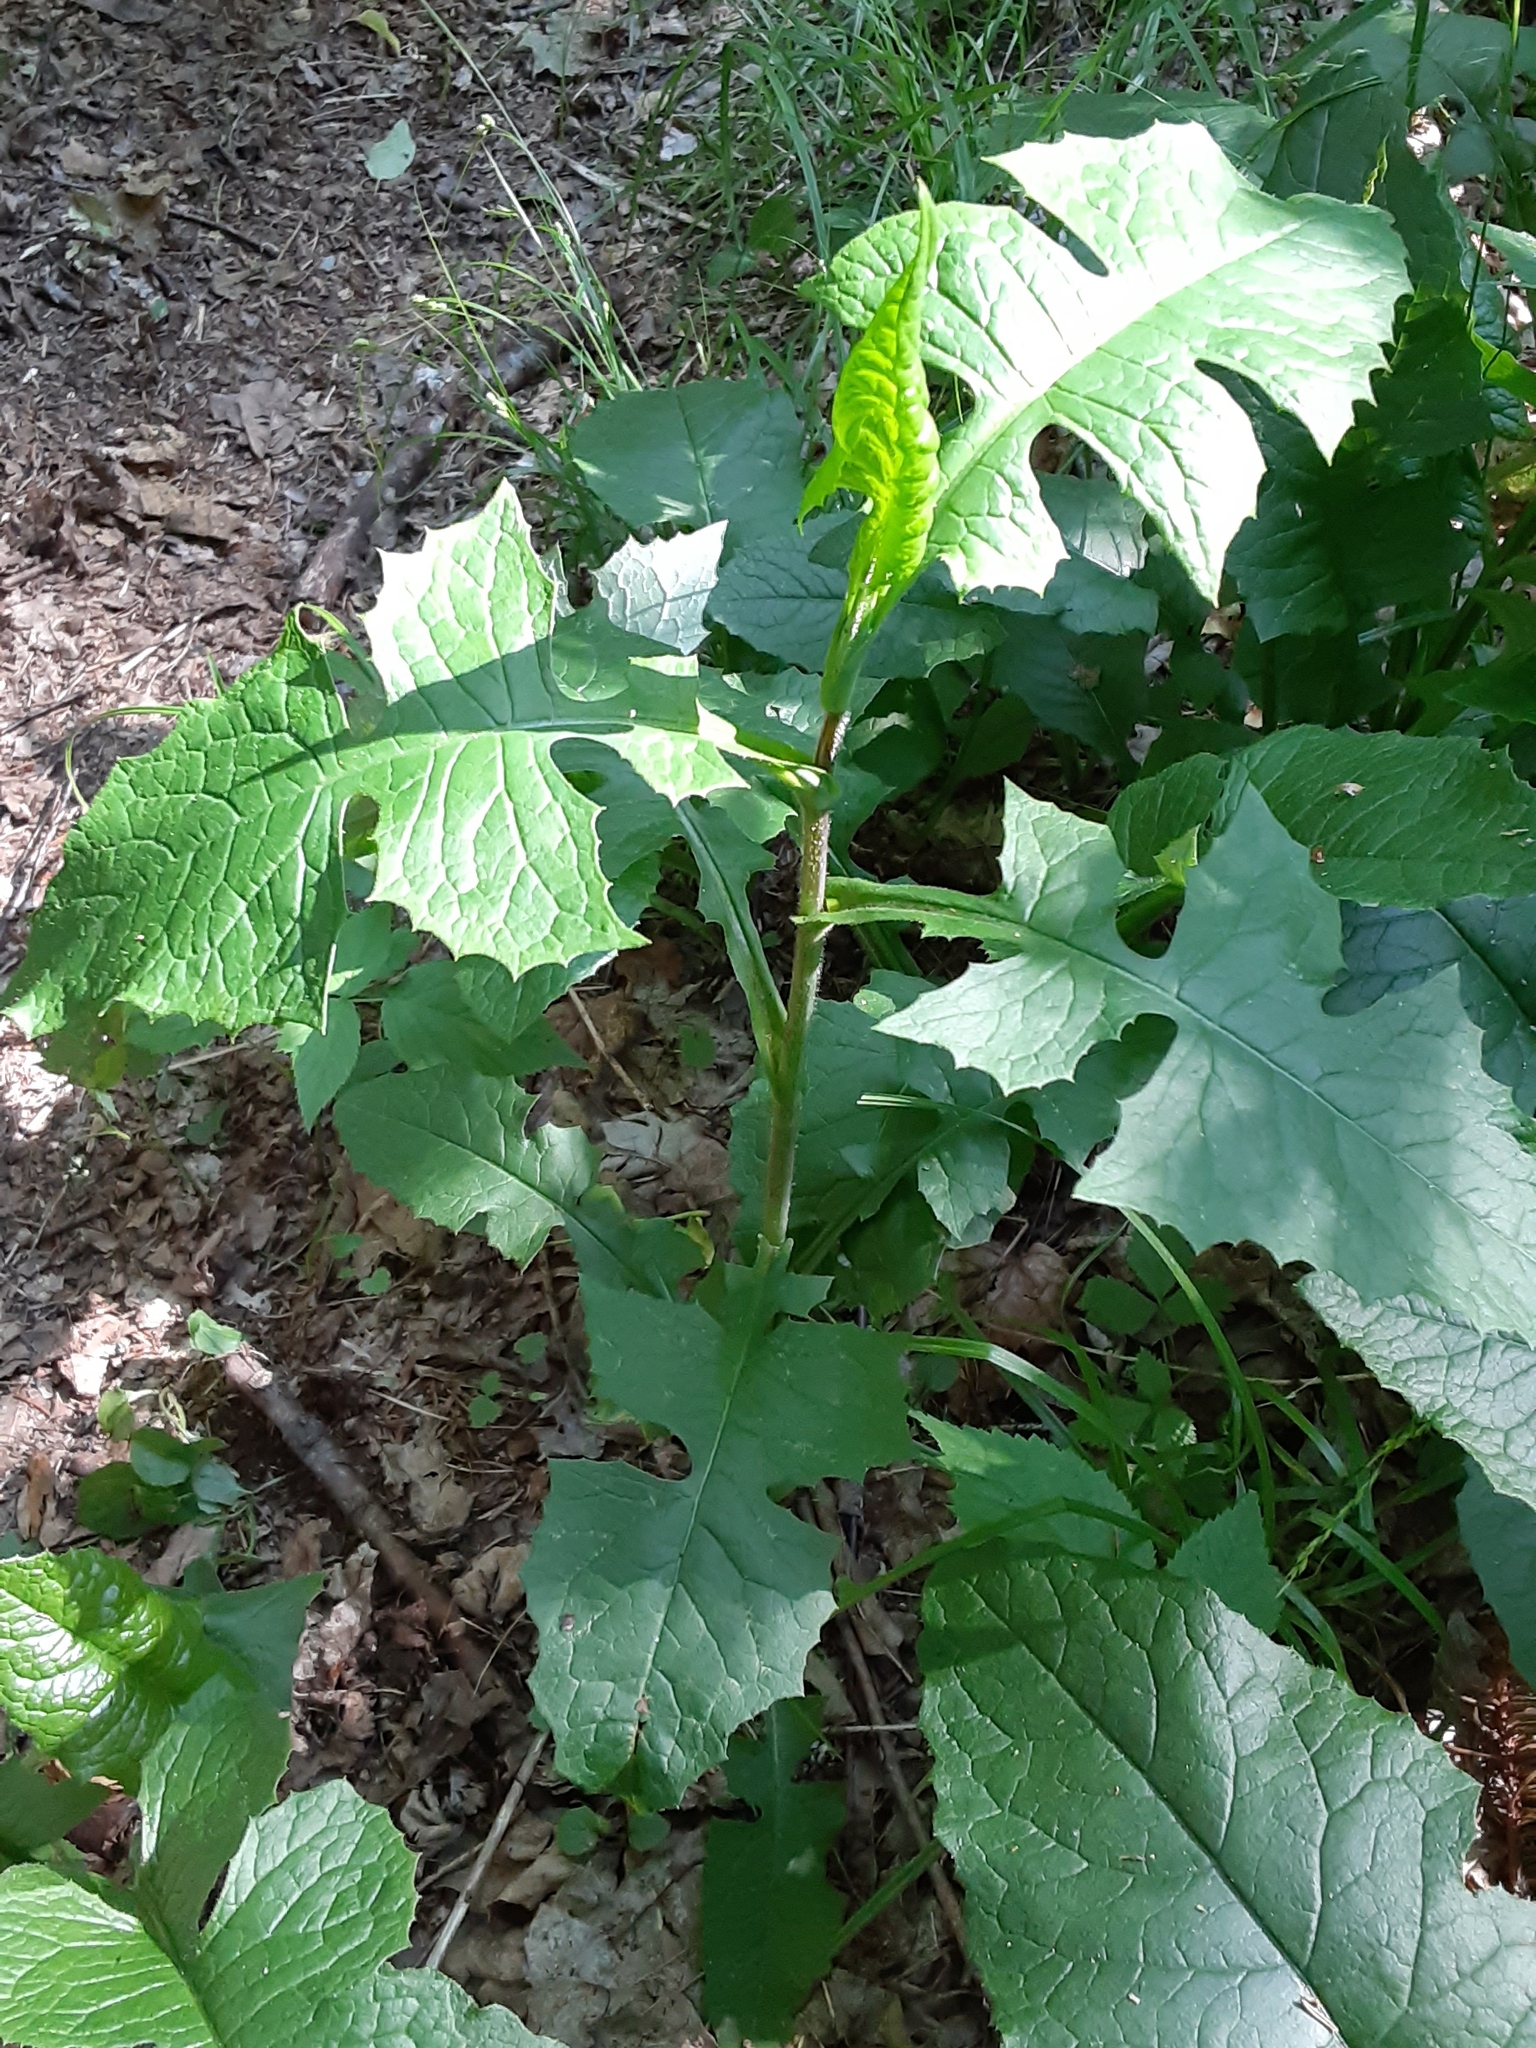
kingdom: Plantae
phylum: Tracheophyta
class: Magnoliopsida
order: Asterales
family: Asteraceae
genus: Lactuca
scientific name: Lactuca biennis
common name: Blue wood lettuce
